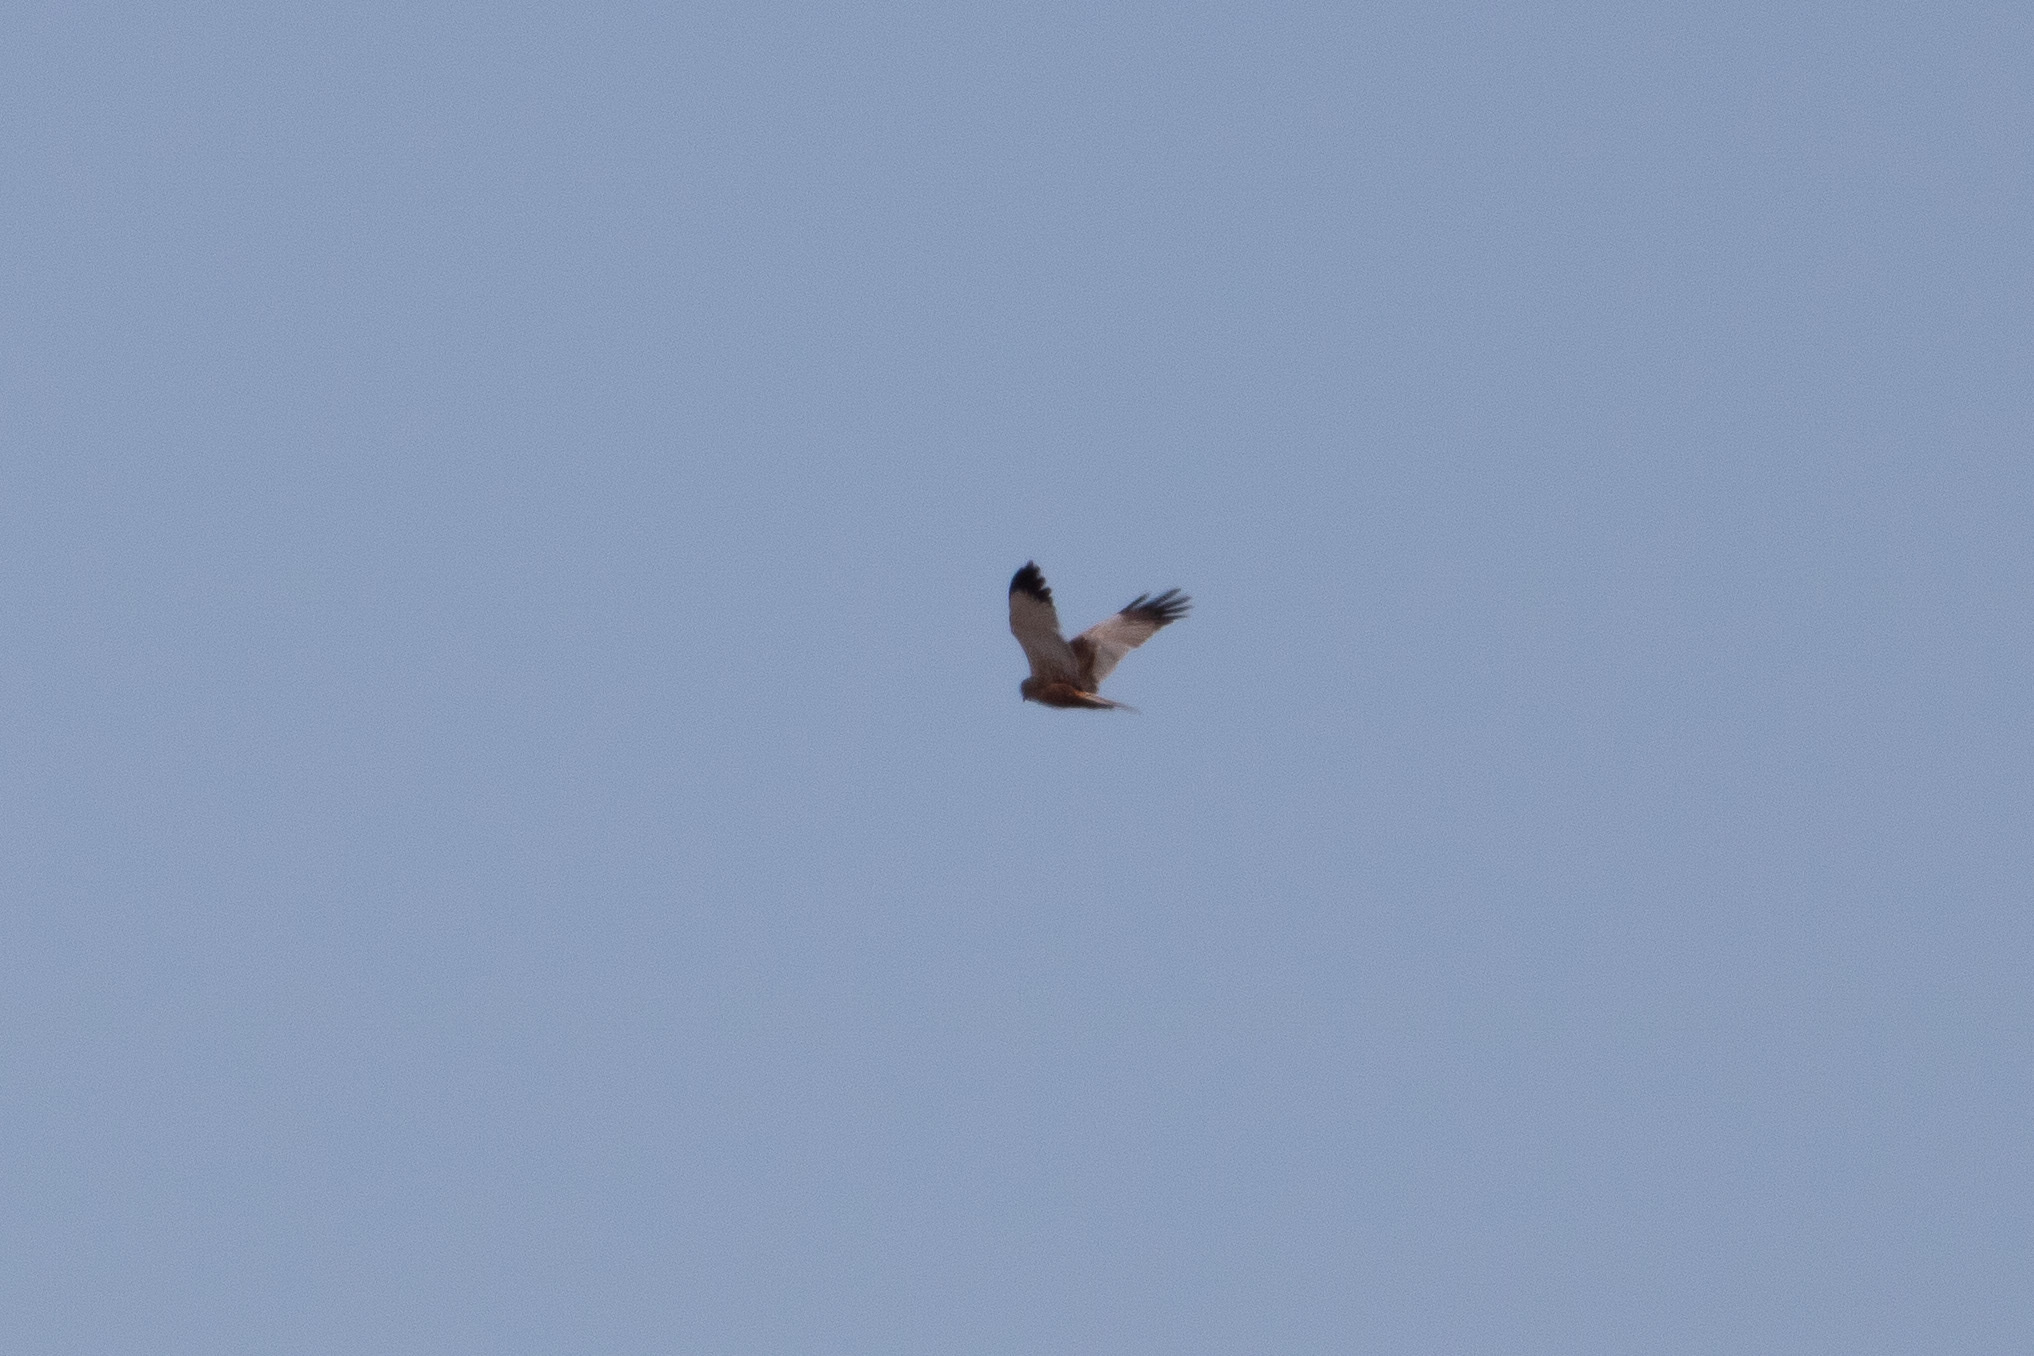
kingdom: Animalia
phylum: Chordata
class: Aves
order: Accipitriformes
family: Accipitridae
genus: Circus
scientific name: Circus aeruginosus
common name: Western marsh harrier
